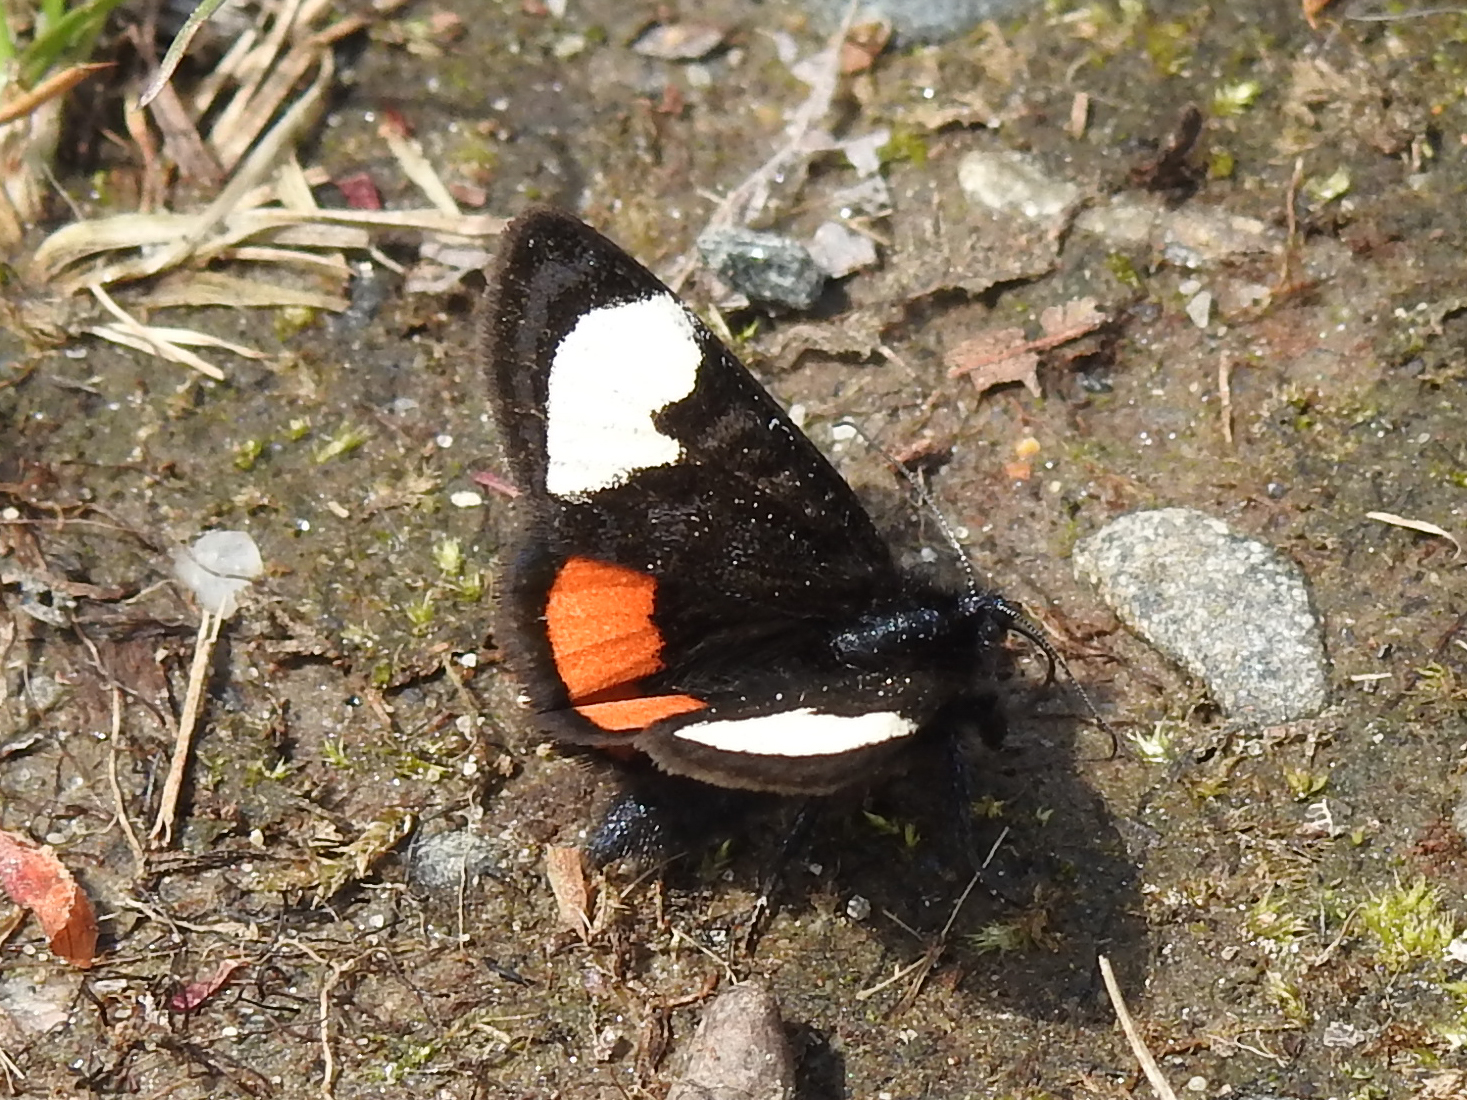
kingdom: Animalia
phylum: Arthropoda
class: Insecta
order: Lepidoptera
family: Noctuidae
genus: Psychomorpha
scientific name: Psychomorpha epimenis
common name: Grapevine epimenis moth
